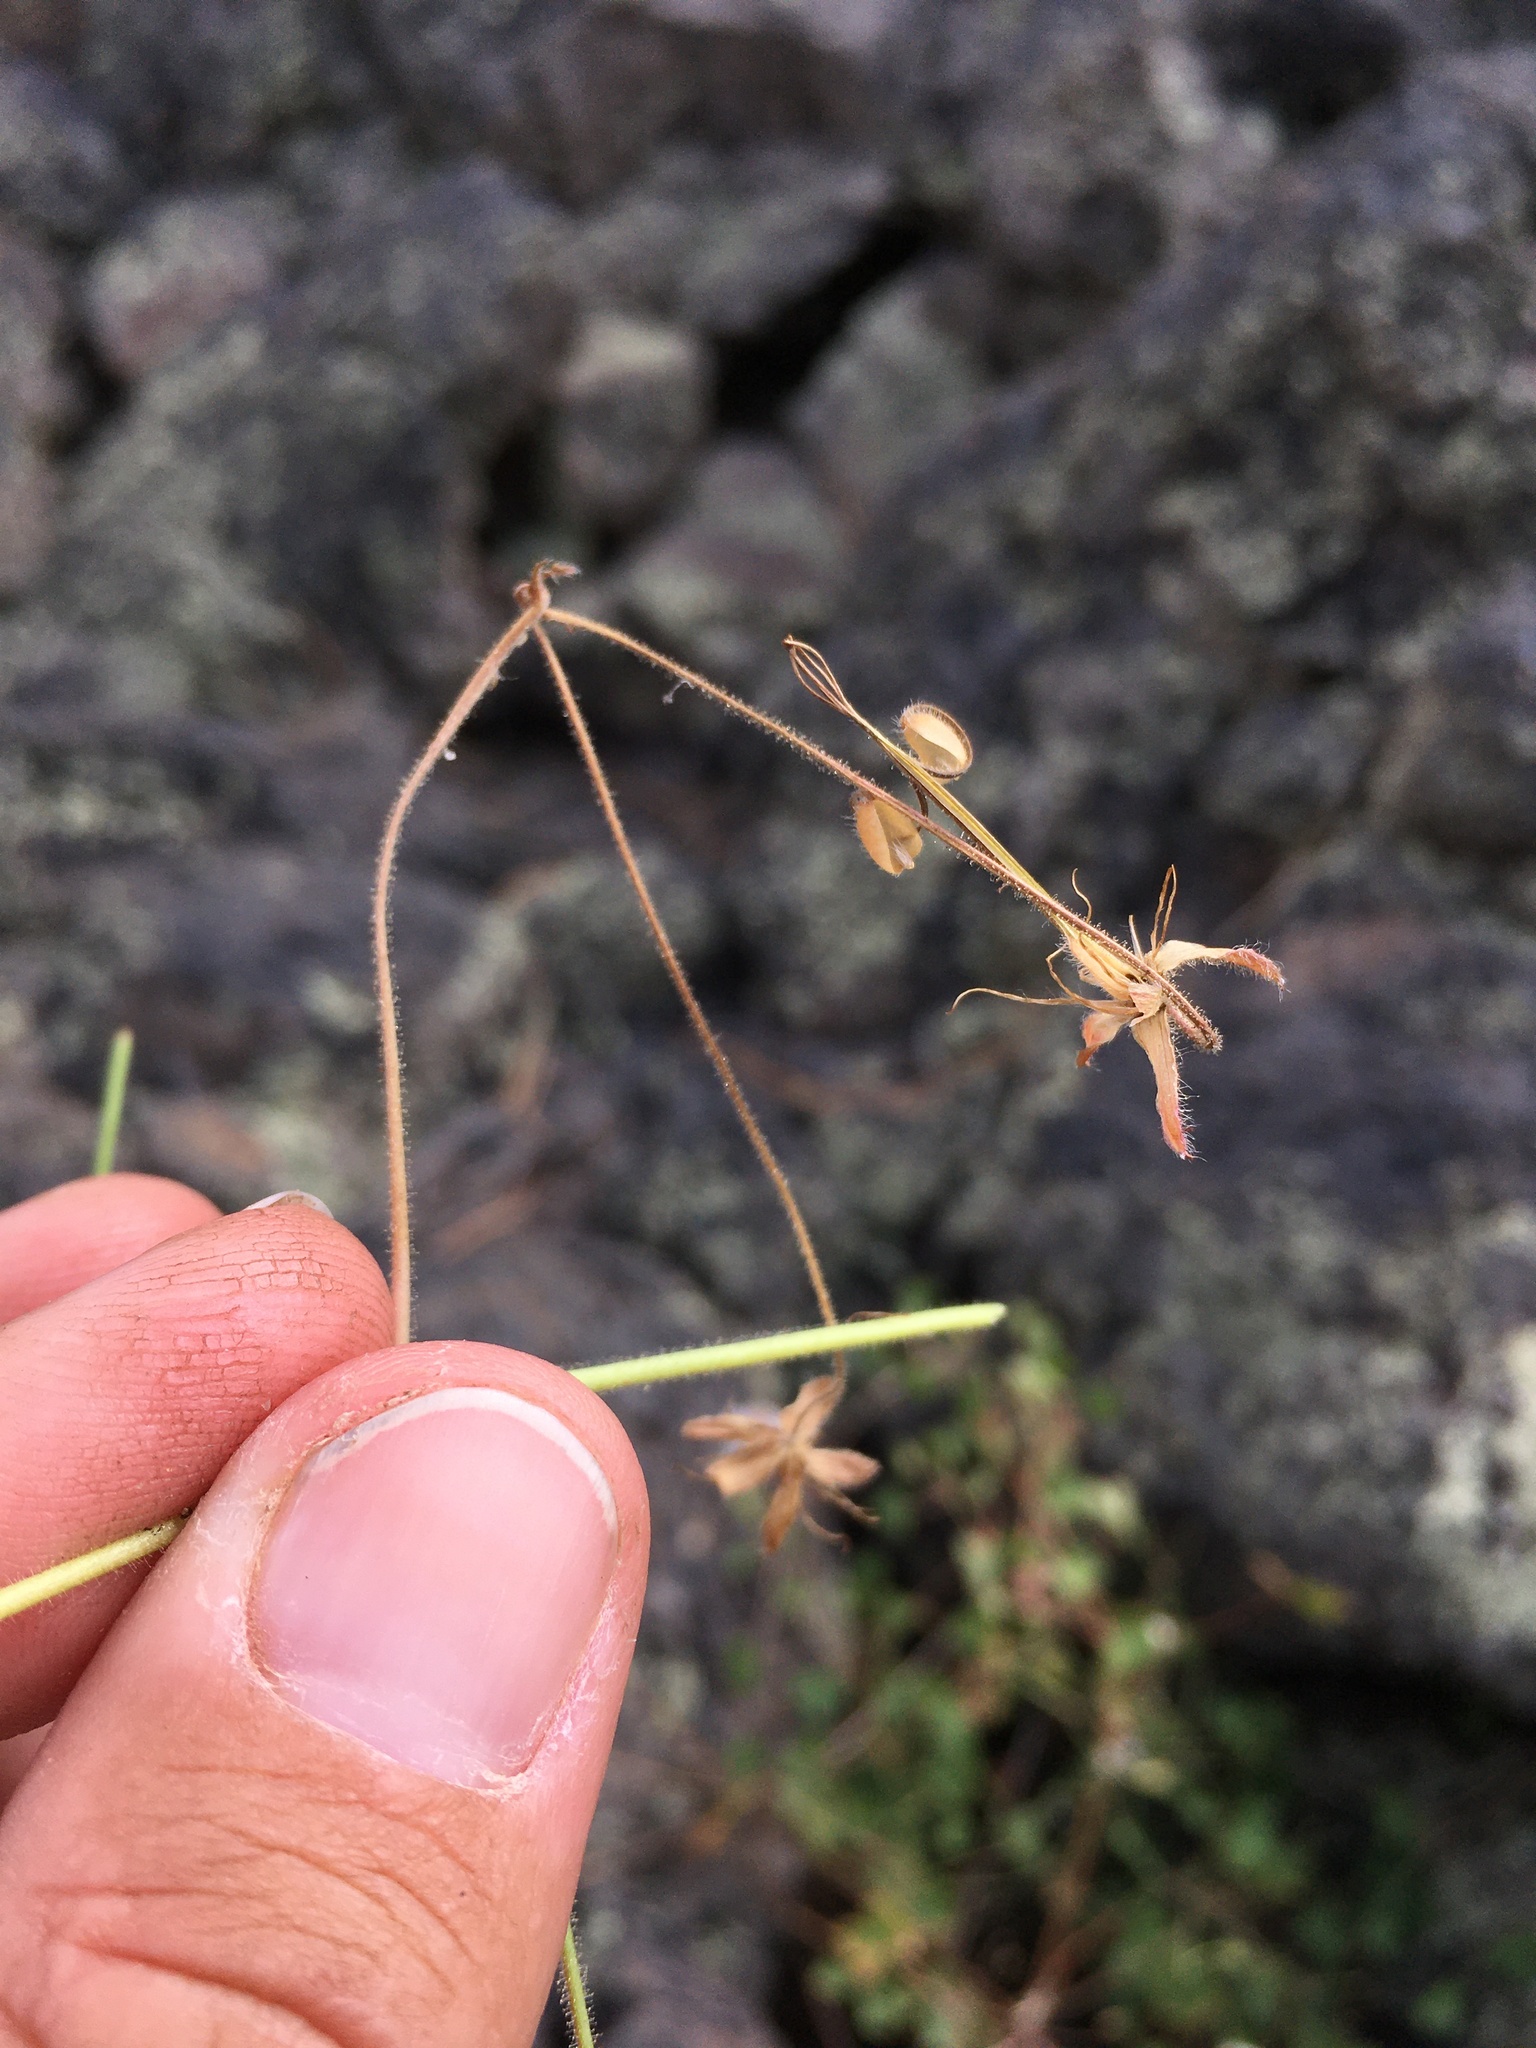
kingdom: Plantae
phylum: Tracheophyta
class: Magnoliopsida
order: Geraniales
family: Geraniaceae
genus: Geranium
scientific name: Geranium lentum
